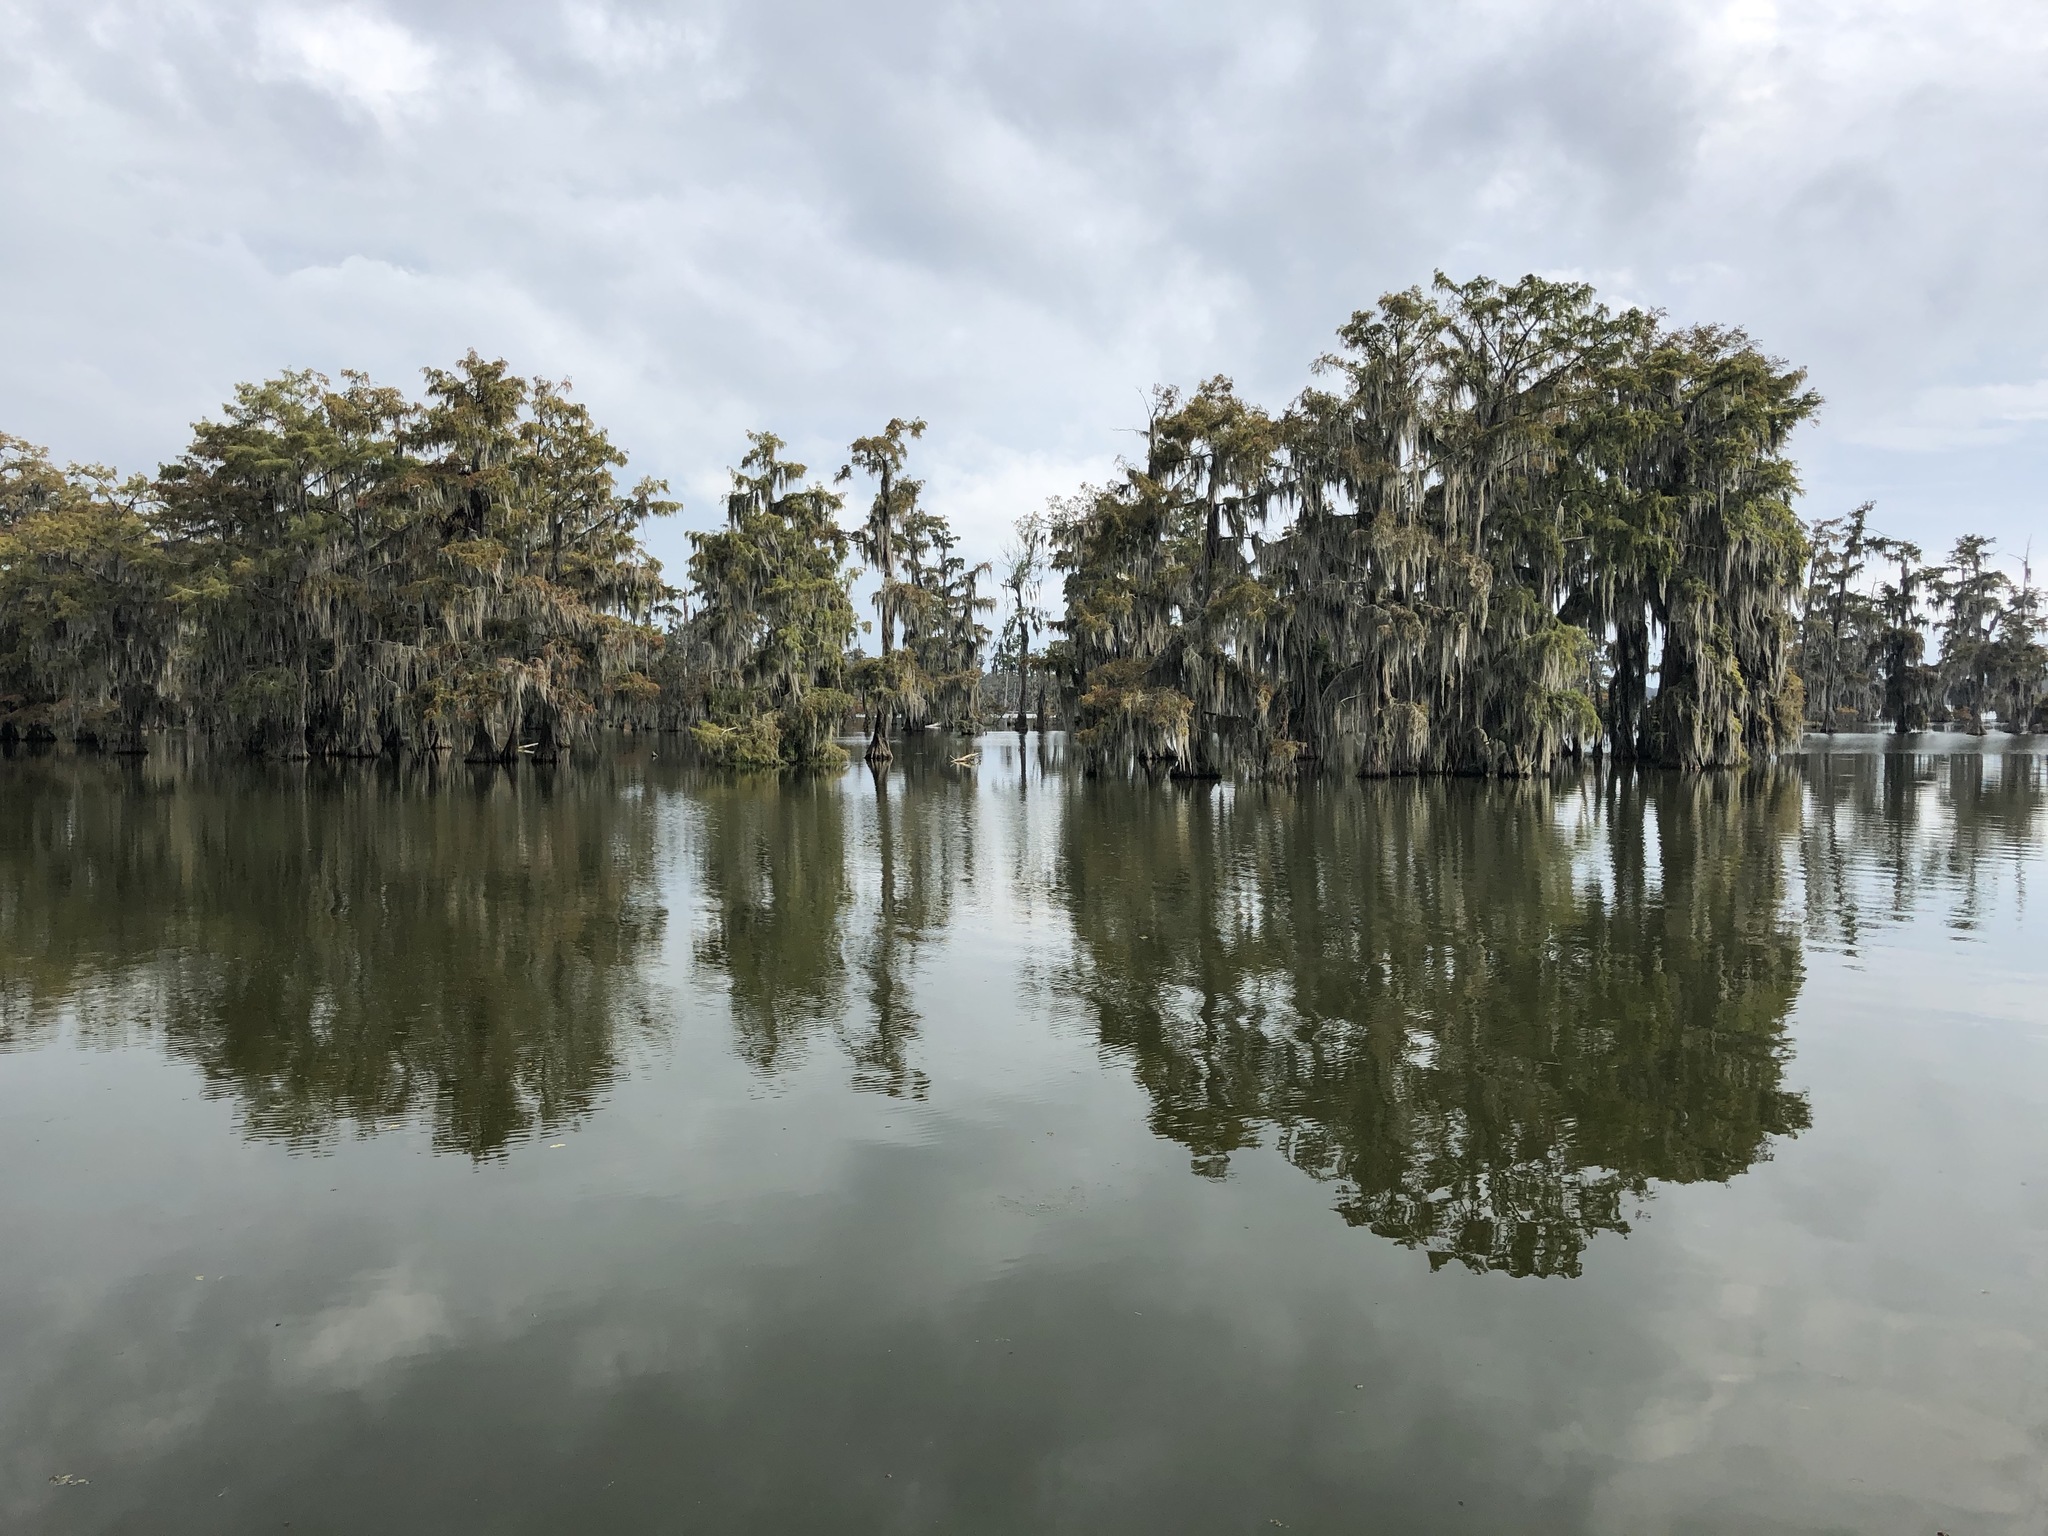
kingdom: Plantae
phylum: Tracheophyta
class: Pinopsida
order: Pinales
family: Cupressaceae
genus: Taxodium
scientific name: Taxodium distichum
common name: Bald cypress
